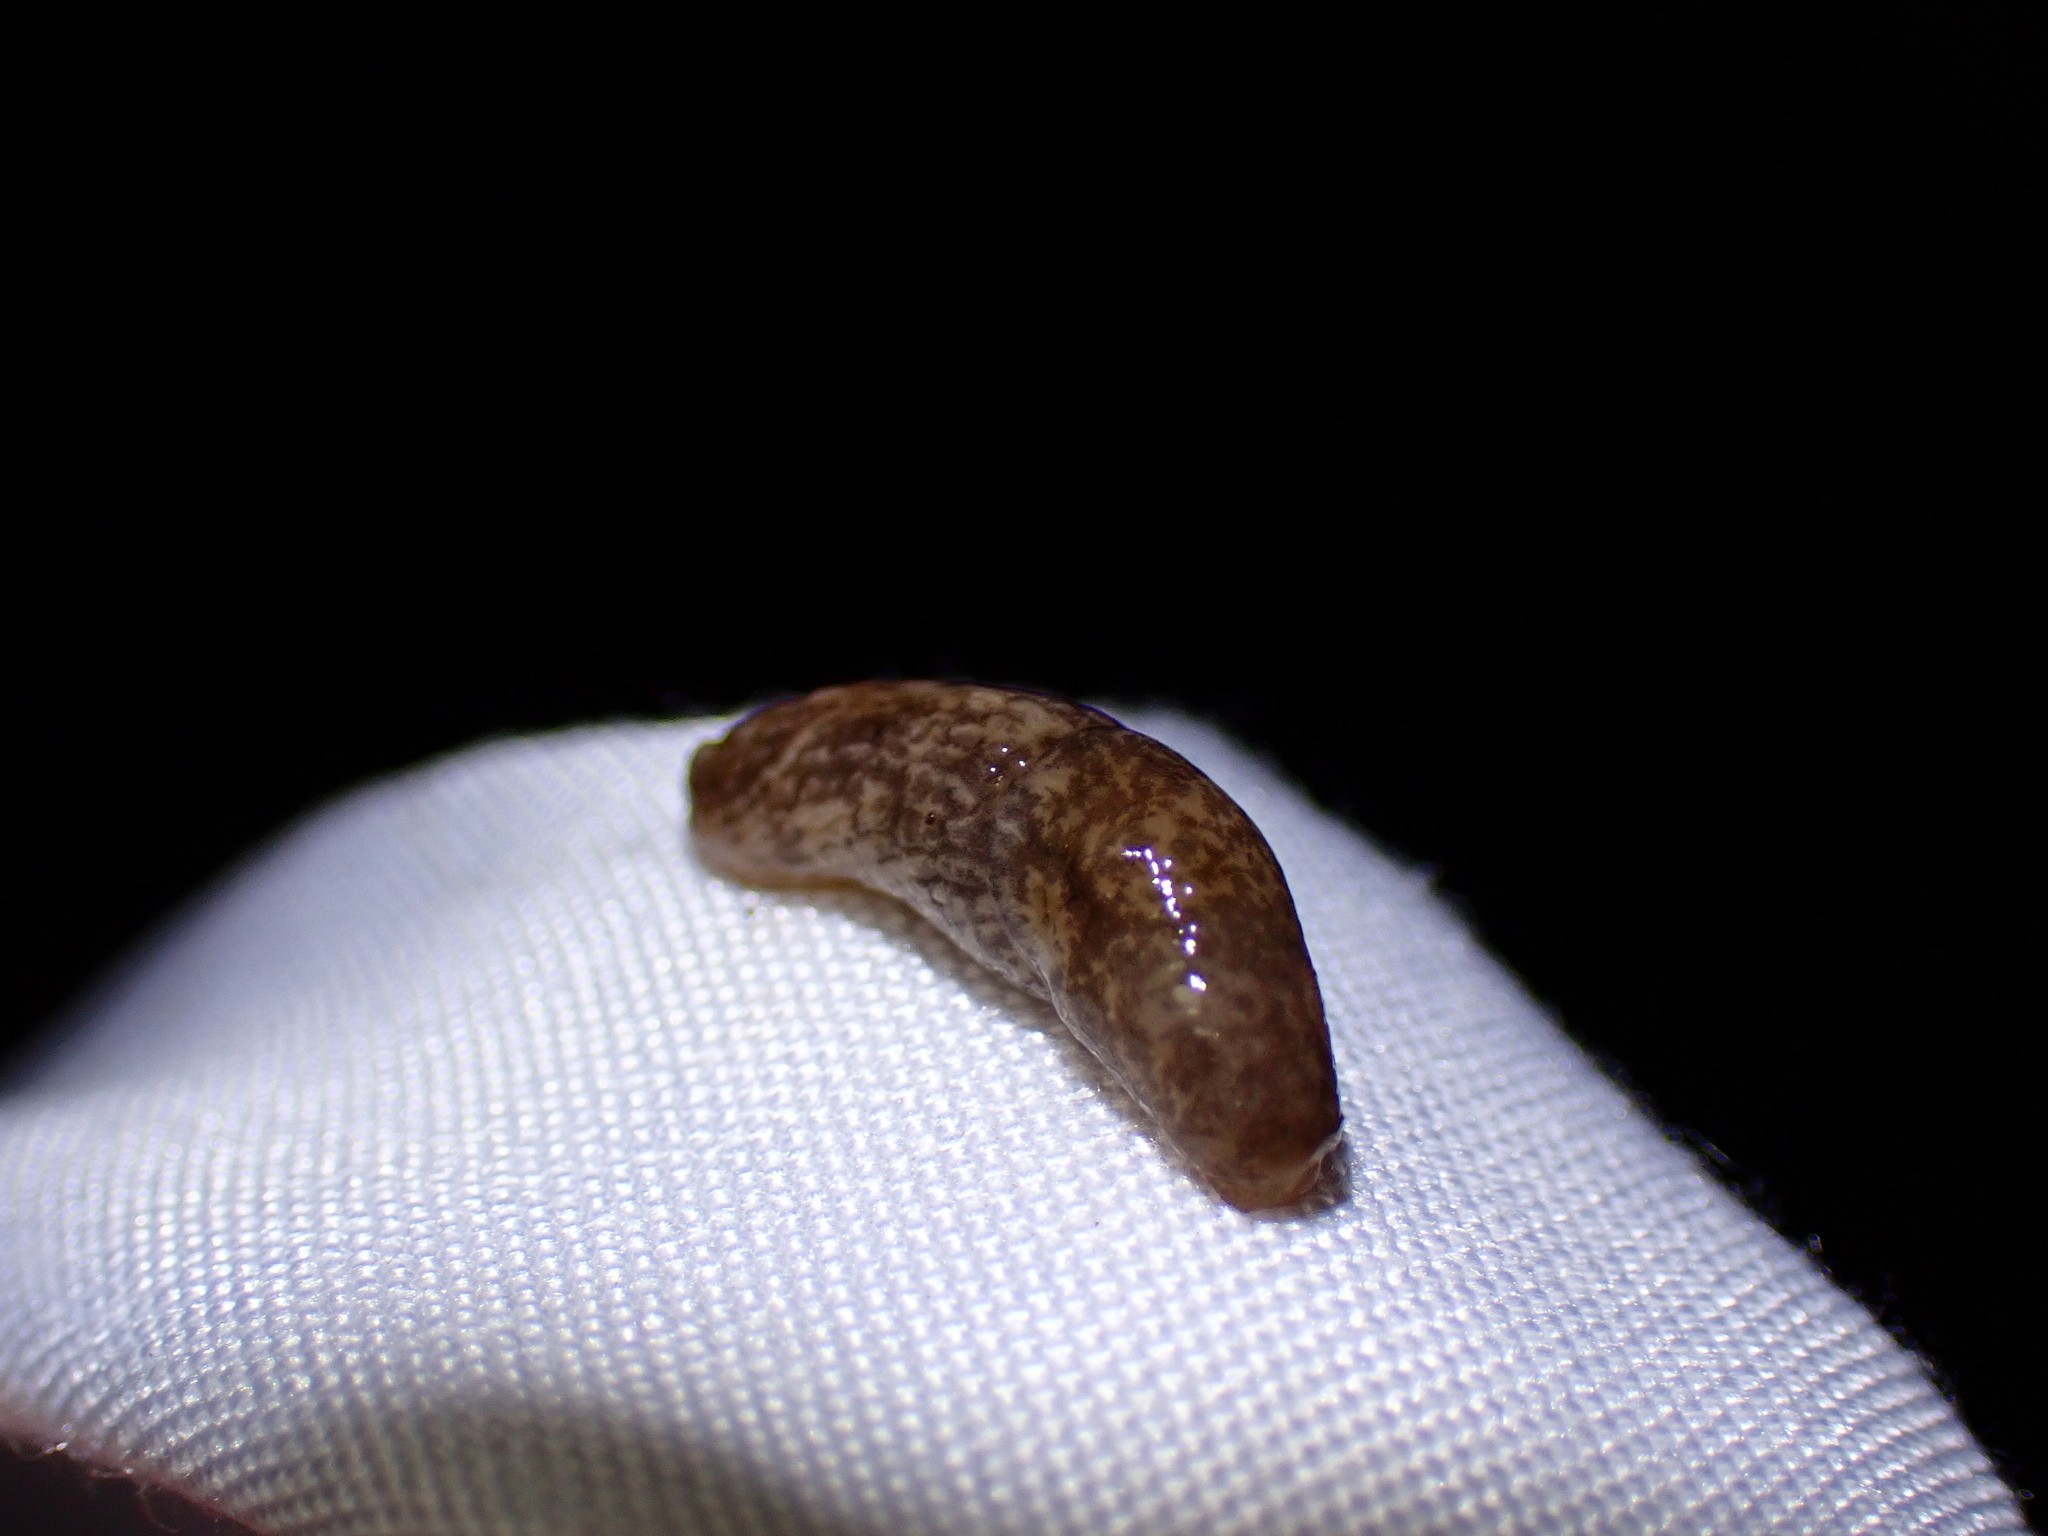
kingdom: Animalia
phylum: Mollusca
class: Gastropoda
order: Stylommatophora
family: Agriolimacidae
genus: Deroceras
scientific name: Deroceras reticulatum
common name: Gray field slug
